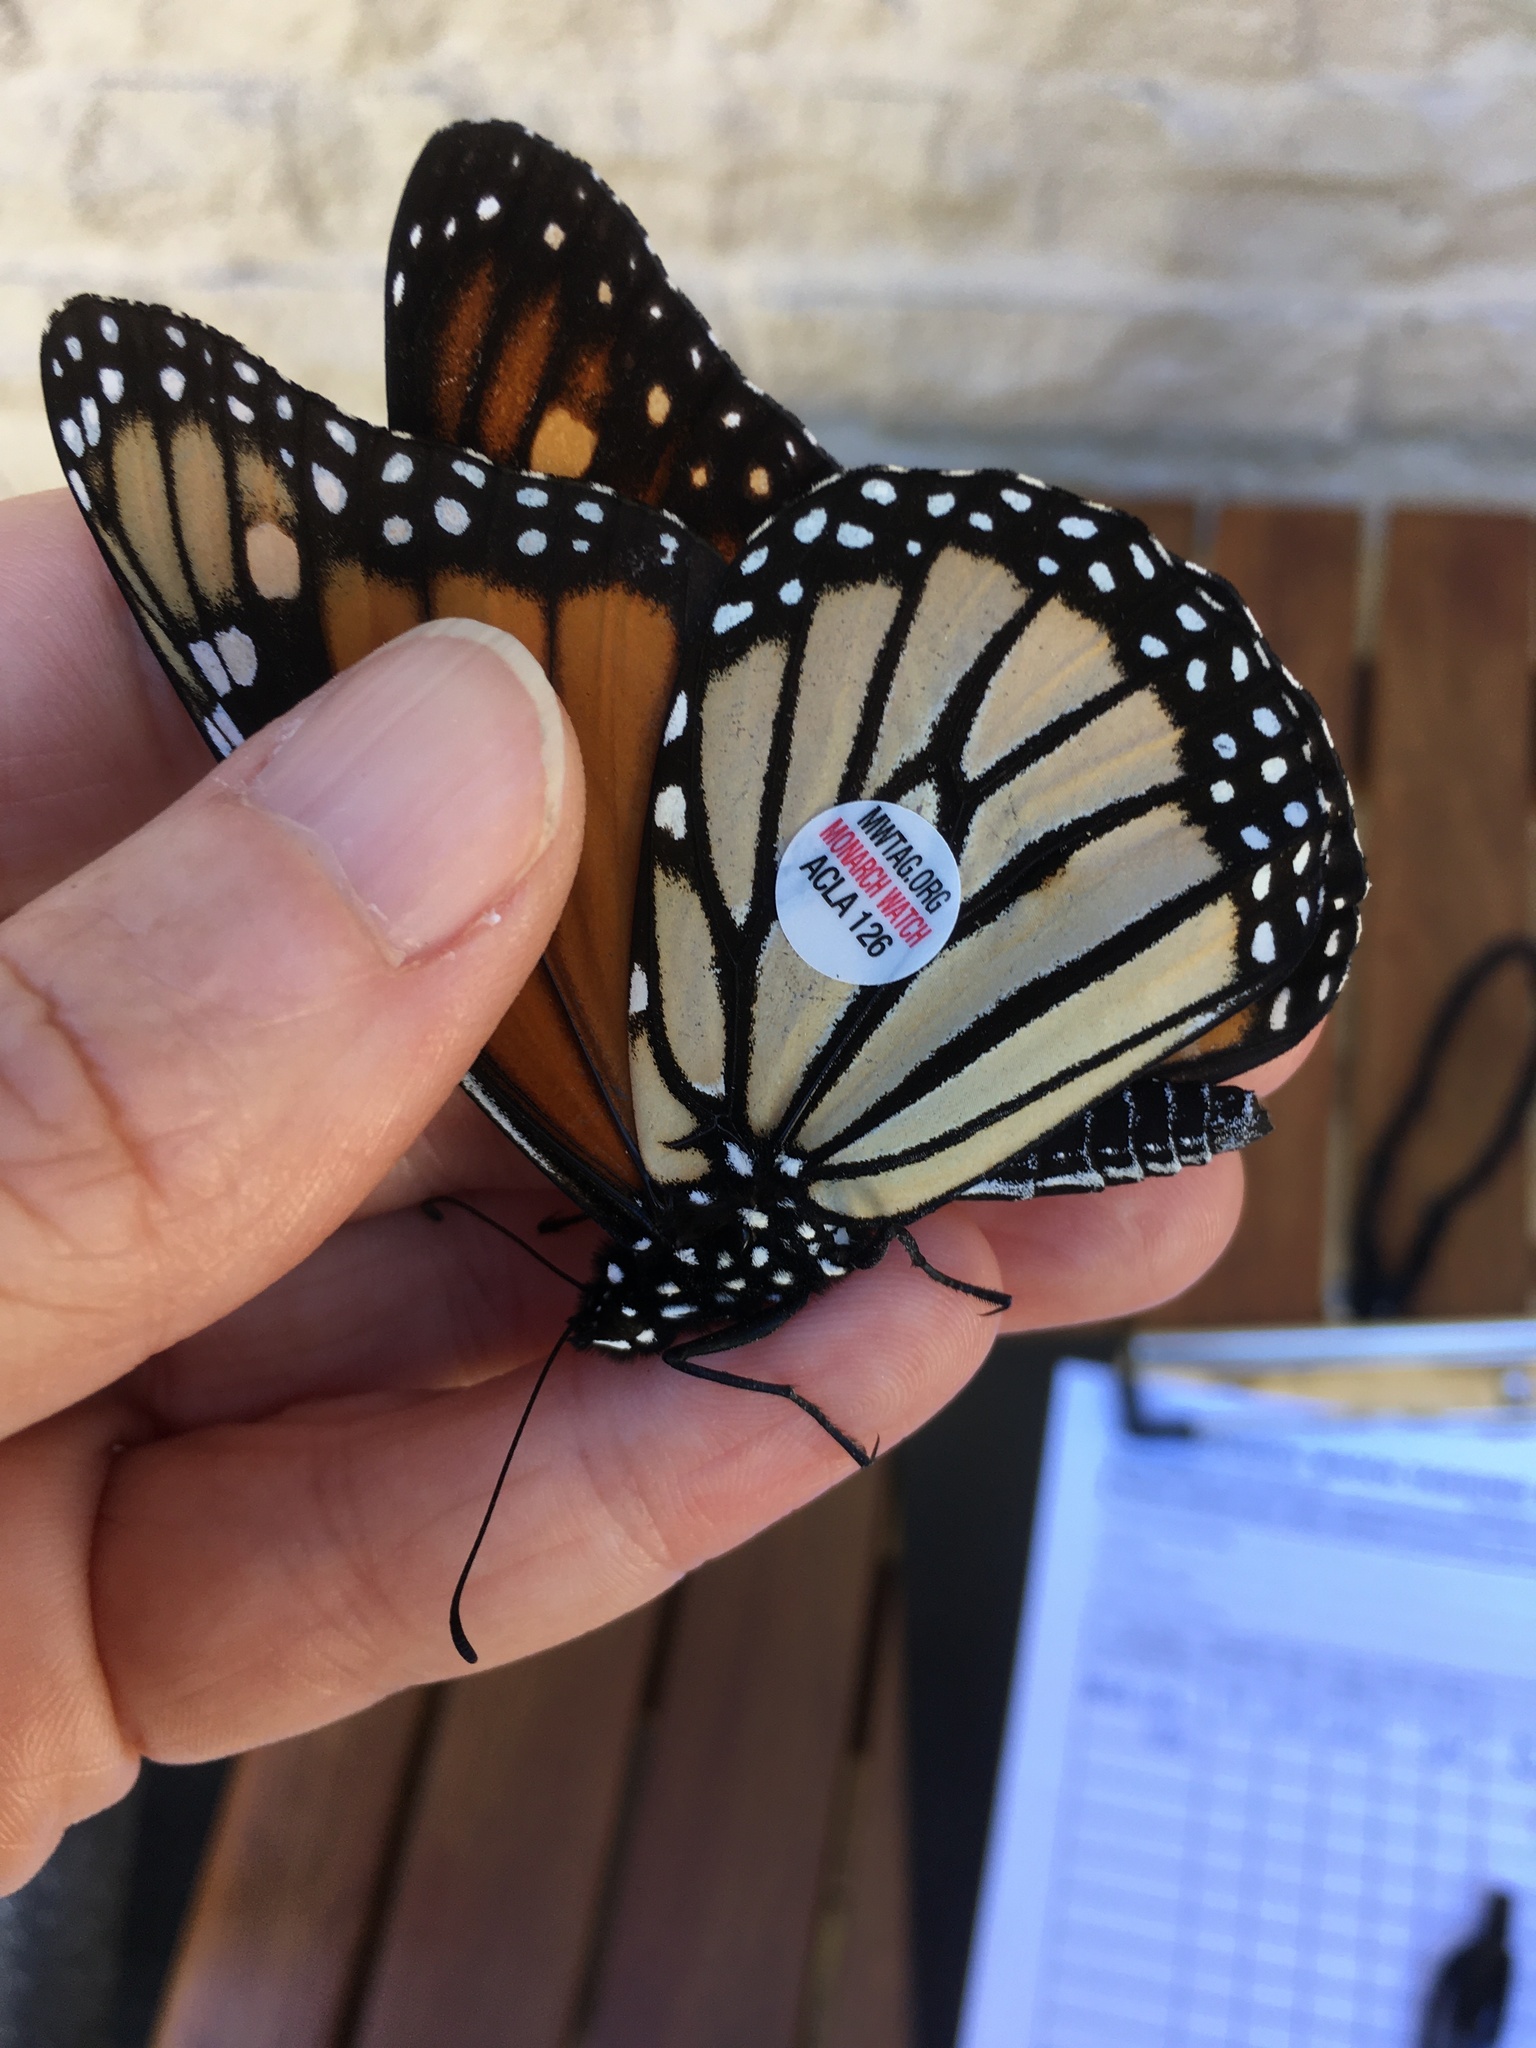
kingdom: Animalia
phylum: Arthropoda
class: Insecta
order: Lepidoptera
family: Nymphalidae
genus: Danaus
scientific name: Danaus plexippus
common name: Monarch
